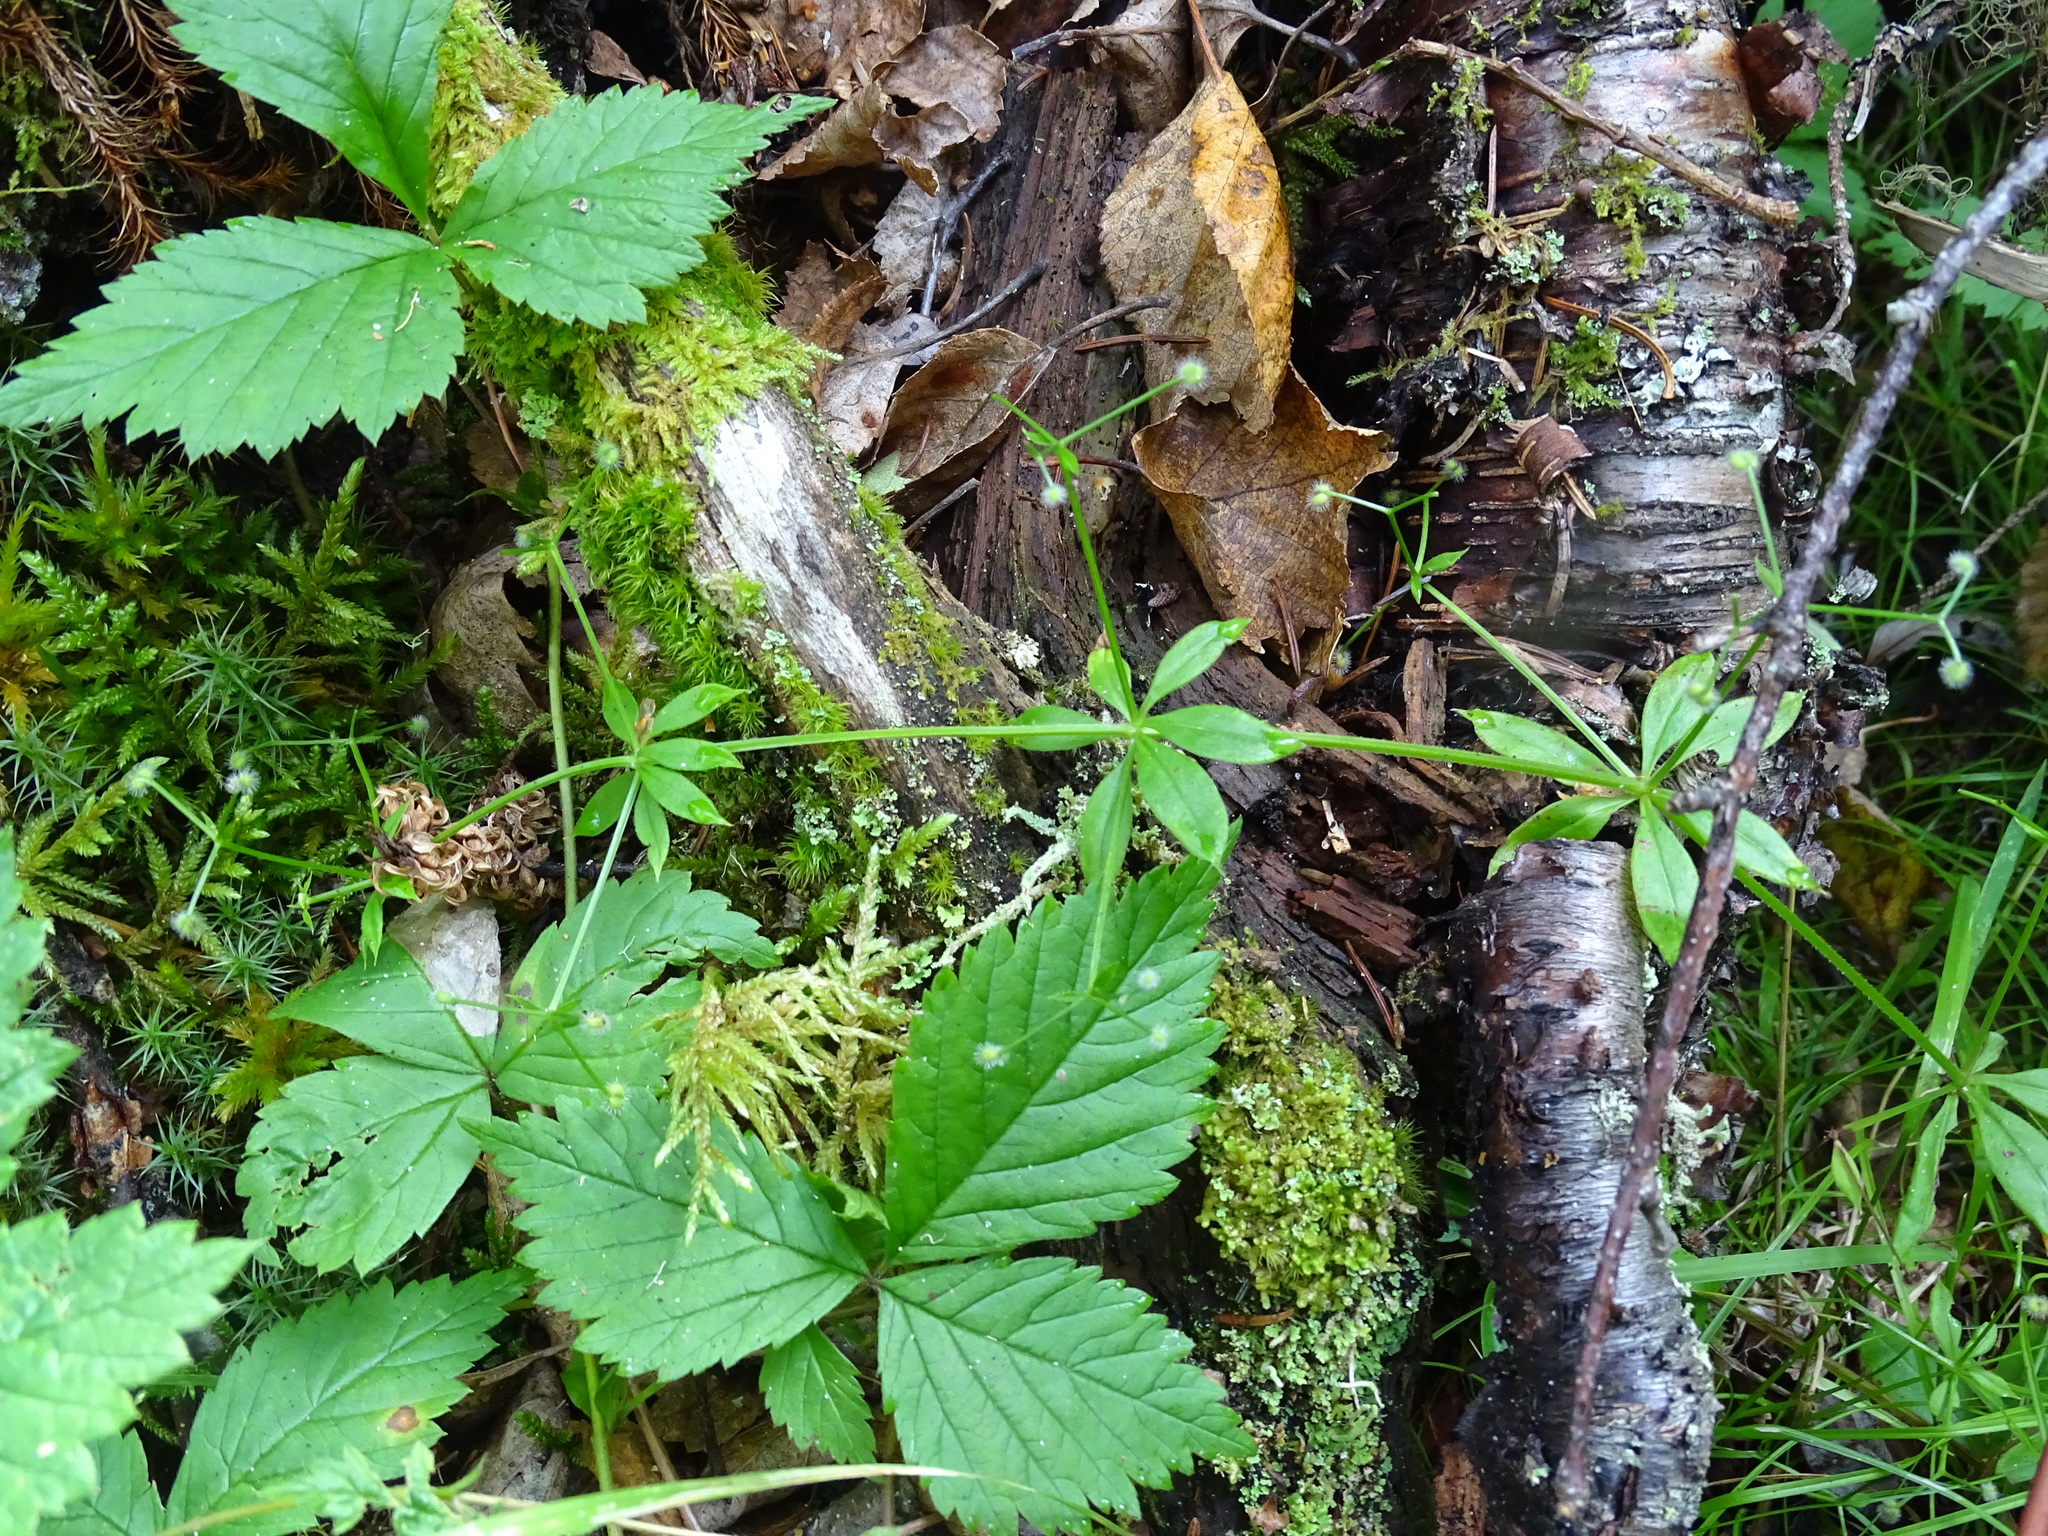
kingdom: Plantae
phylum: Tracheophyta
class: Magnoliopsida
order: Gentianales
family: Rubiaceae
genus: Galium
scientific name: Galium triflorum
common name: Fragrant bedstraw
